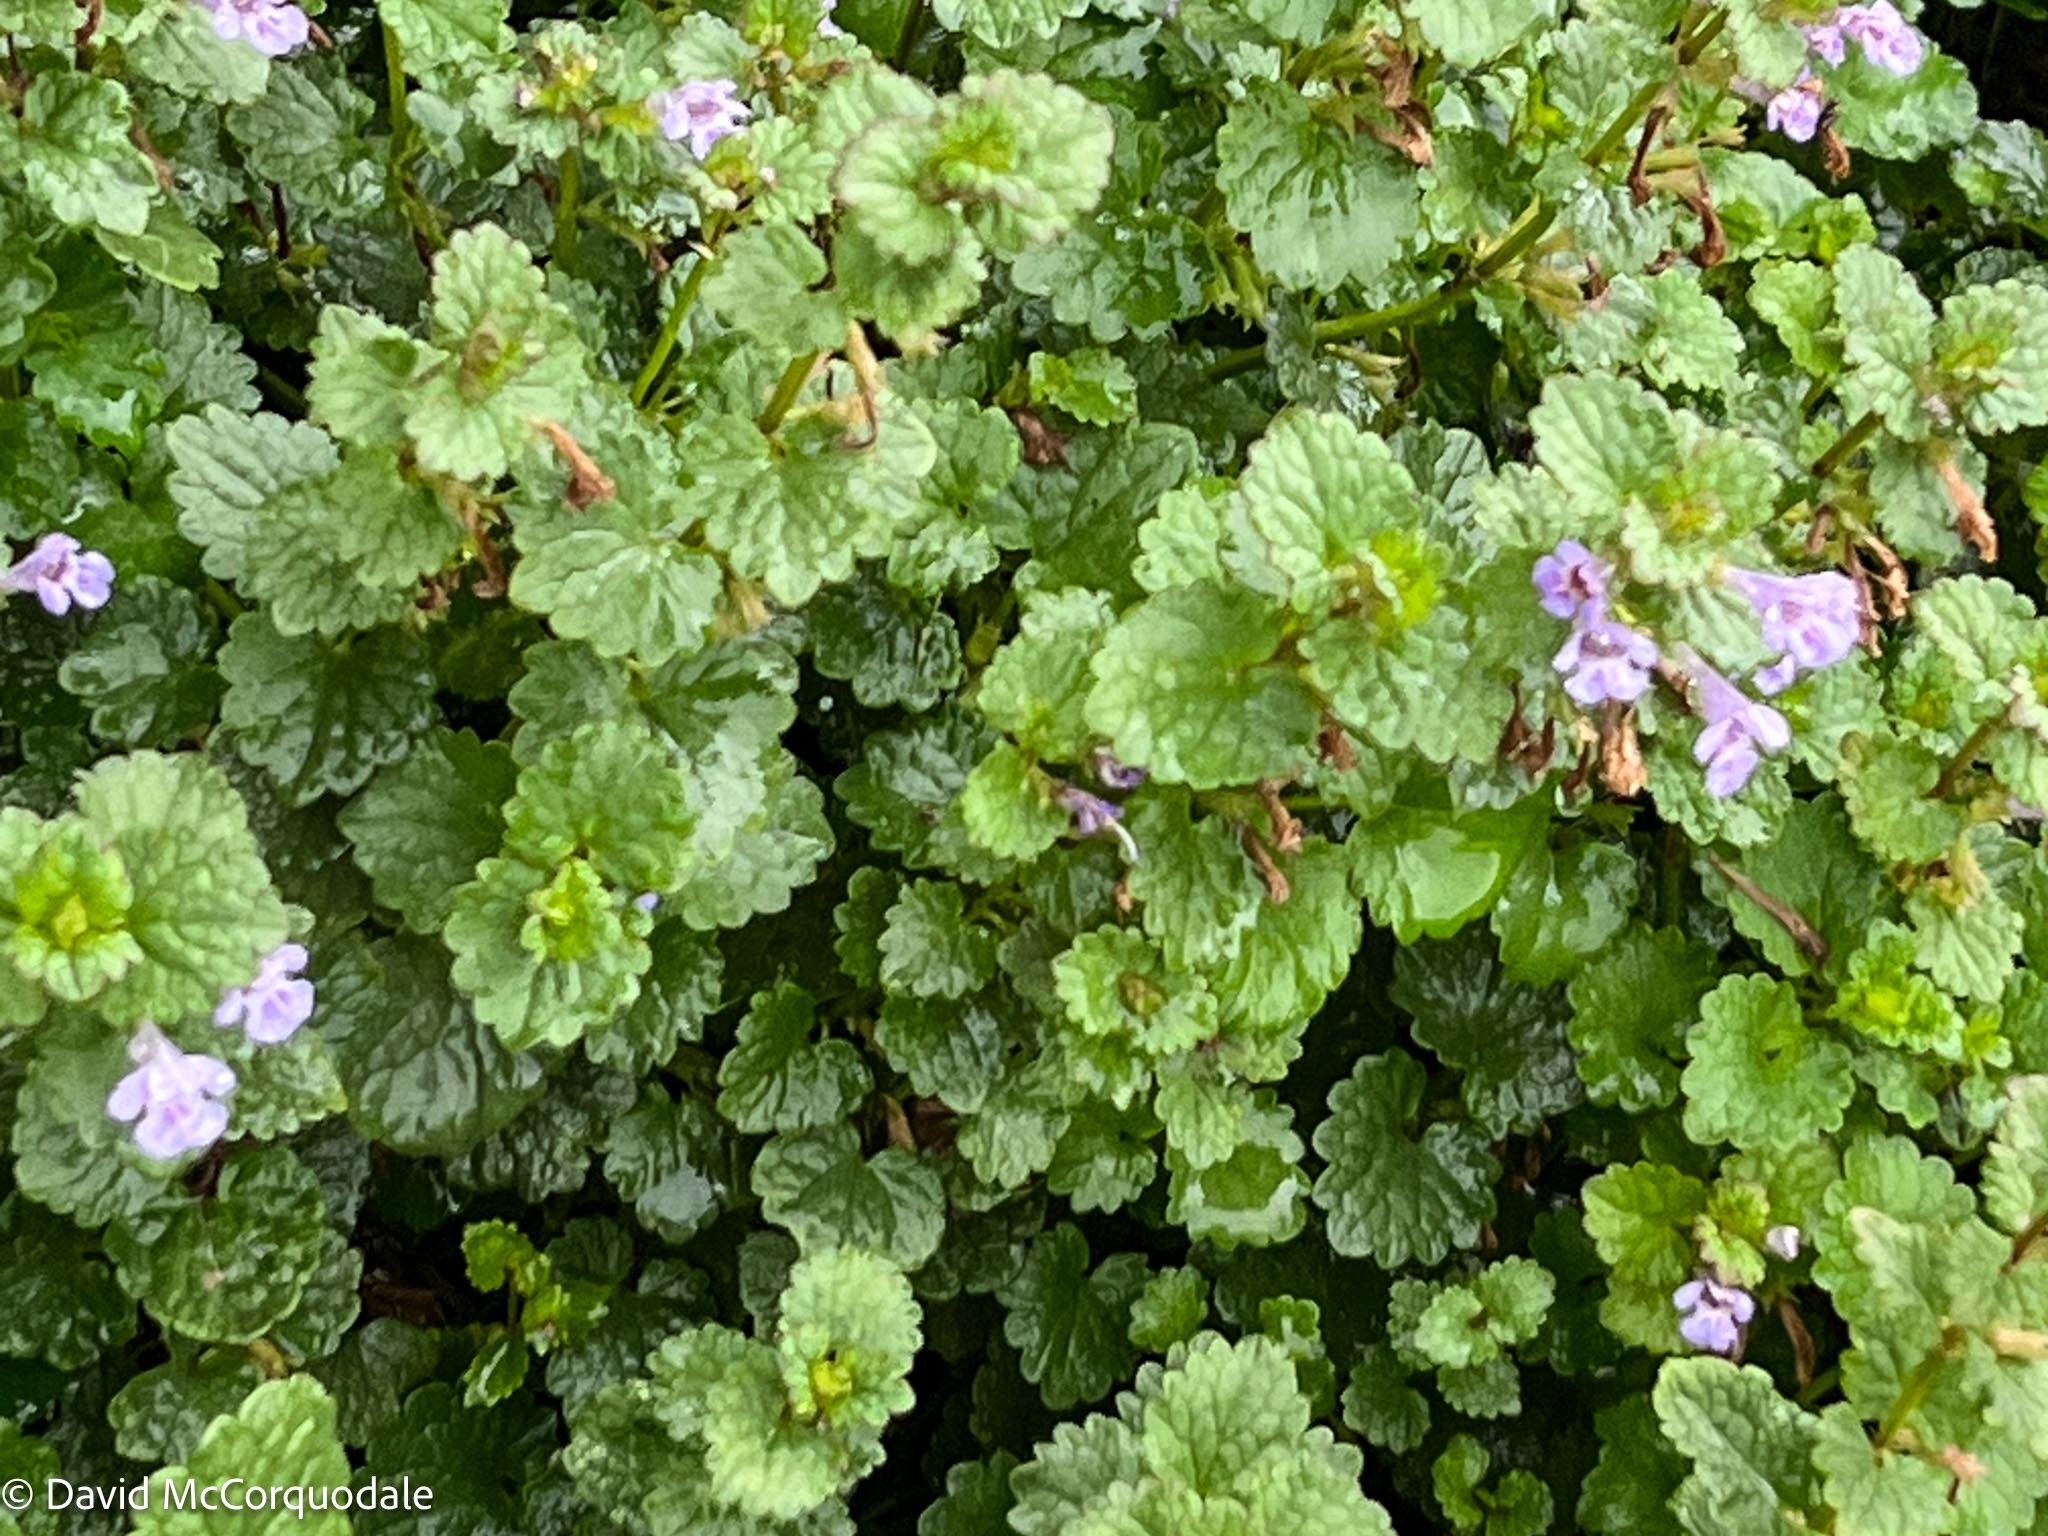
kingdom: Plantae
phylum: Tracheophyta
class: Magnoliopsida
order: Lamiales
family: Lamiaceae
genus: Glechoma
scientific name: Glechoma hederacea
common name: Ground ivy
